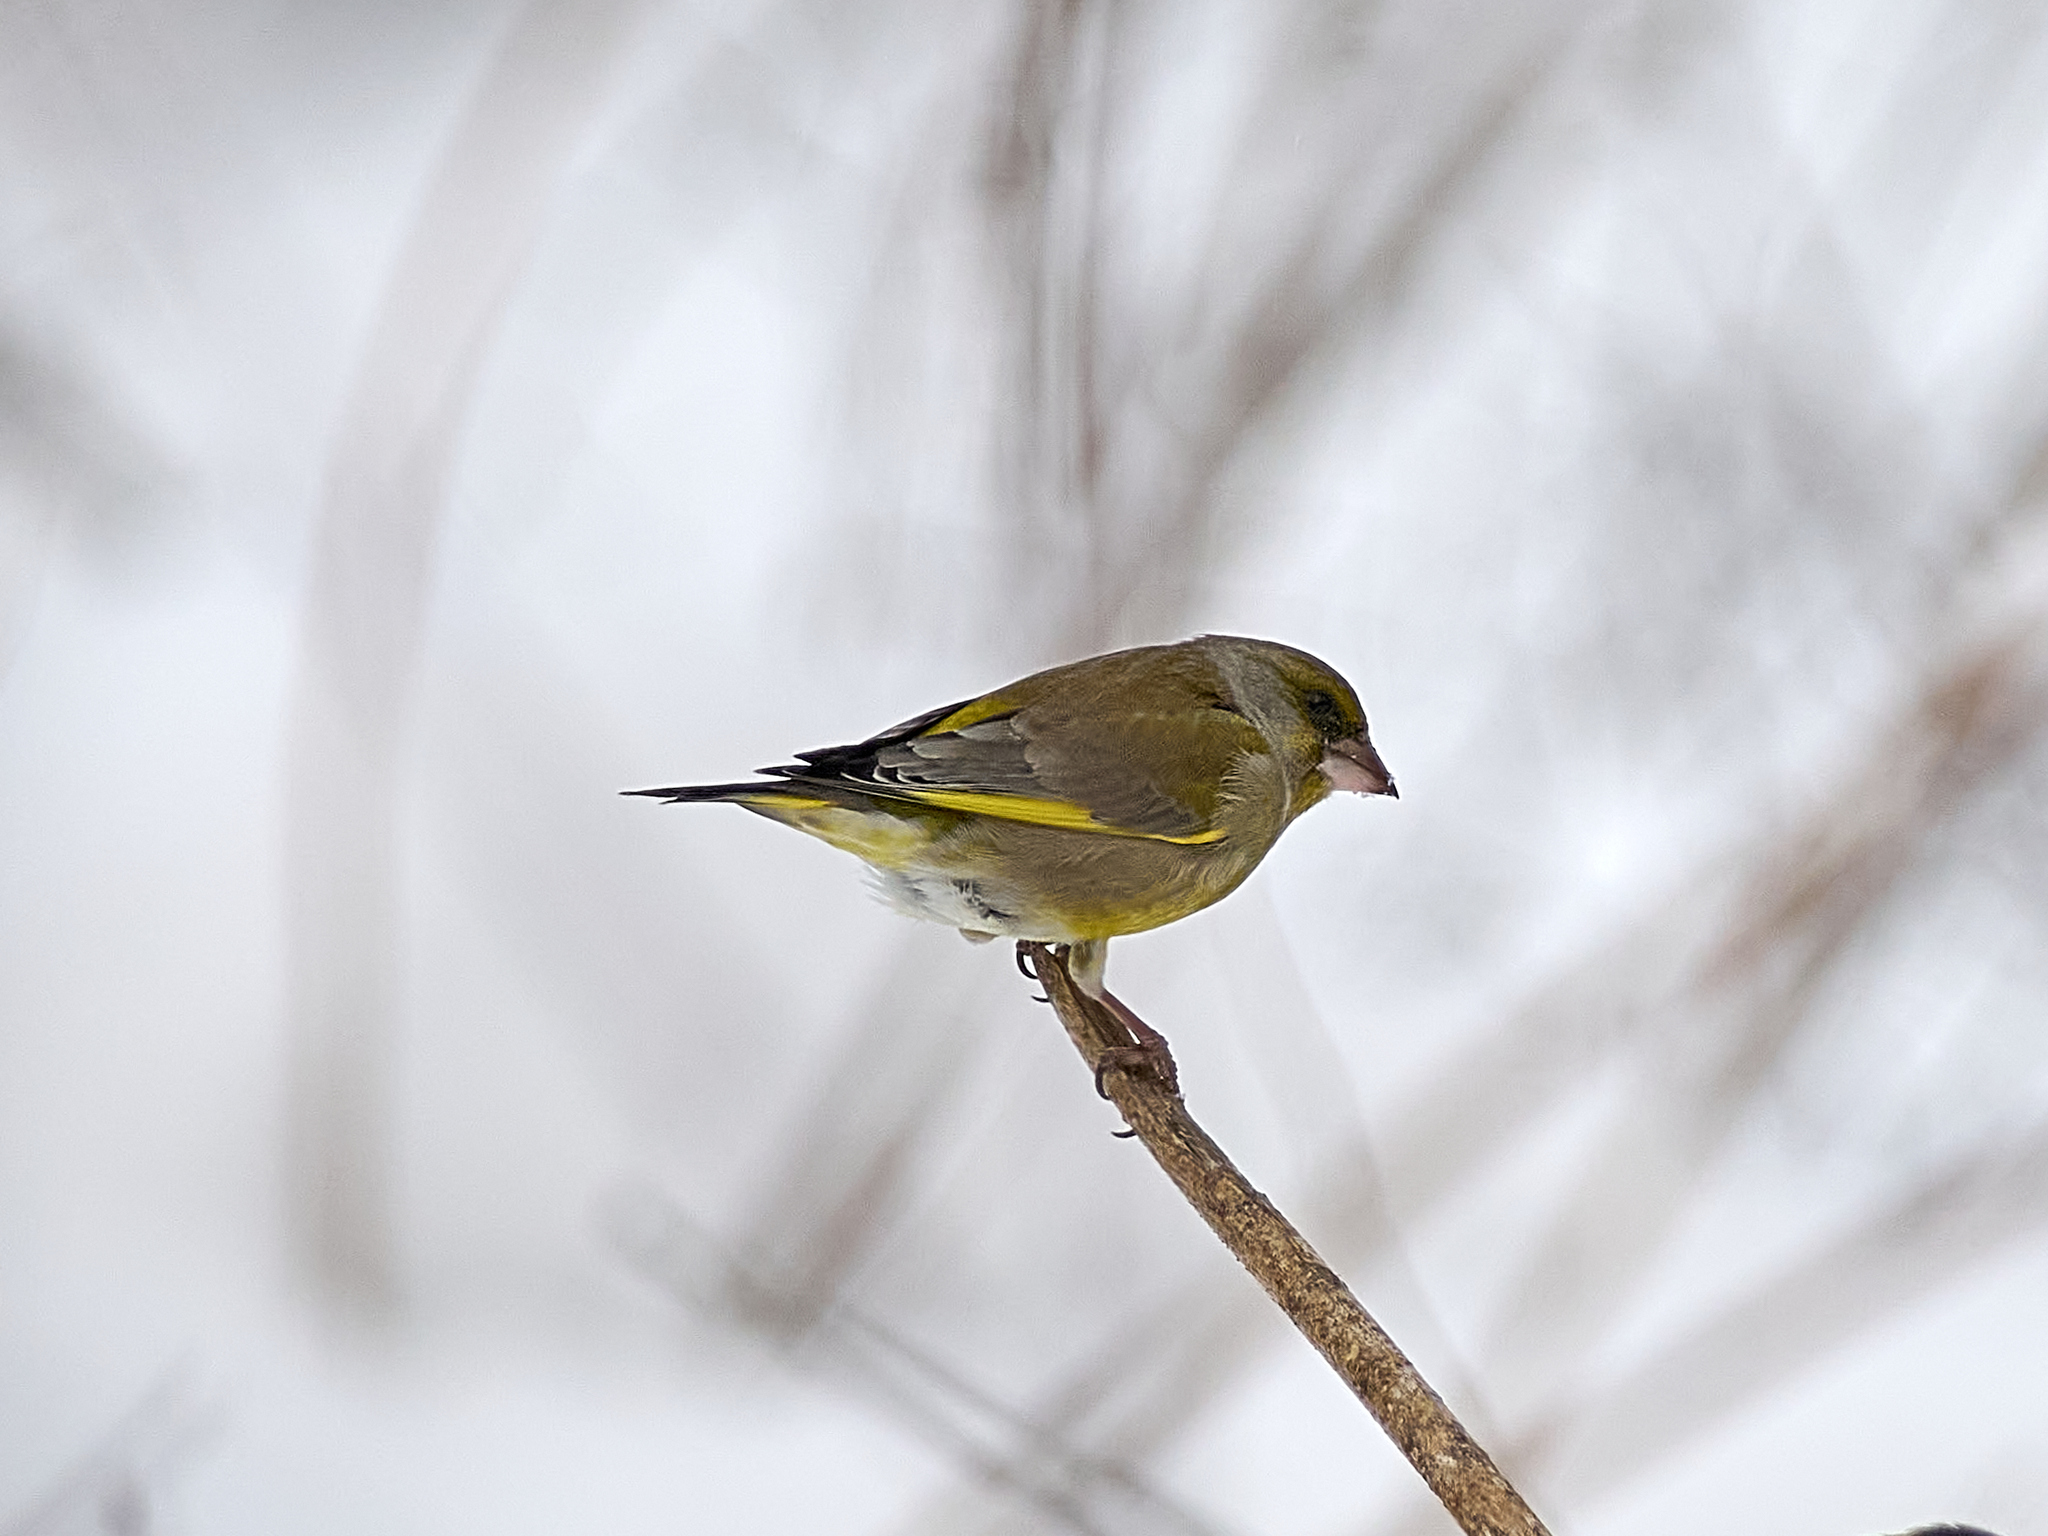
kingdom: Plantae
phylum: Tracheophyta
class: Liliopsida
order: Poales
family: Poaceae
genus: Chloris
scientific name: Chloris chloris
